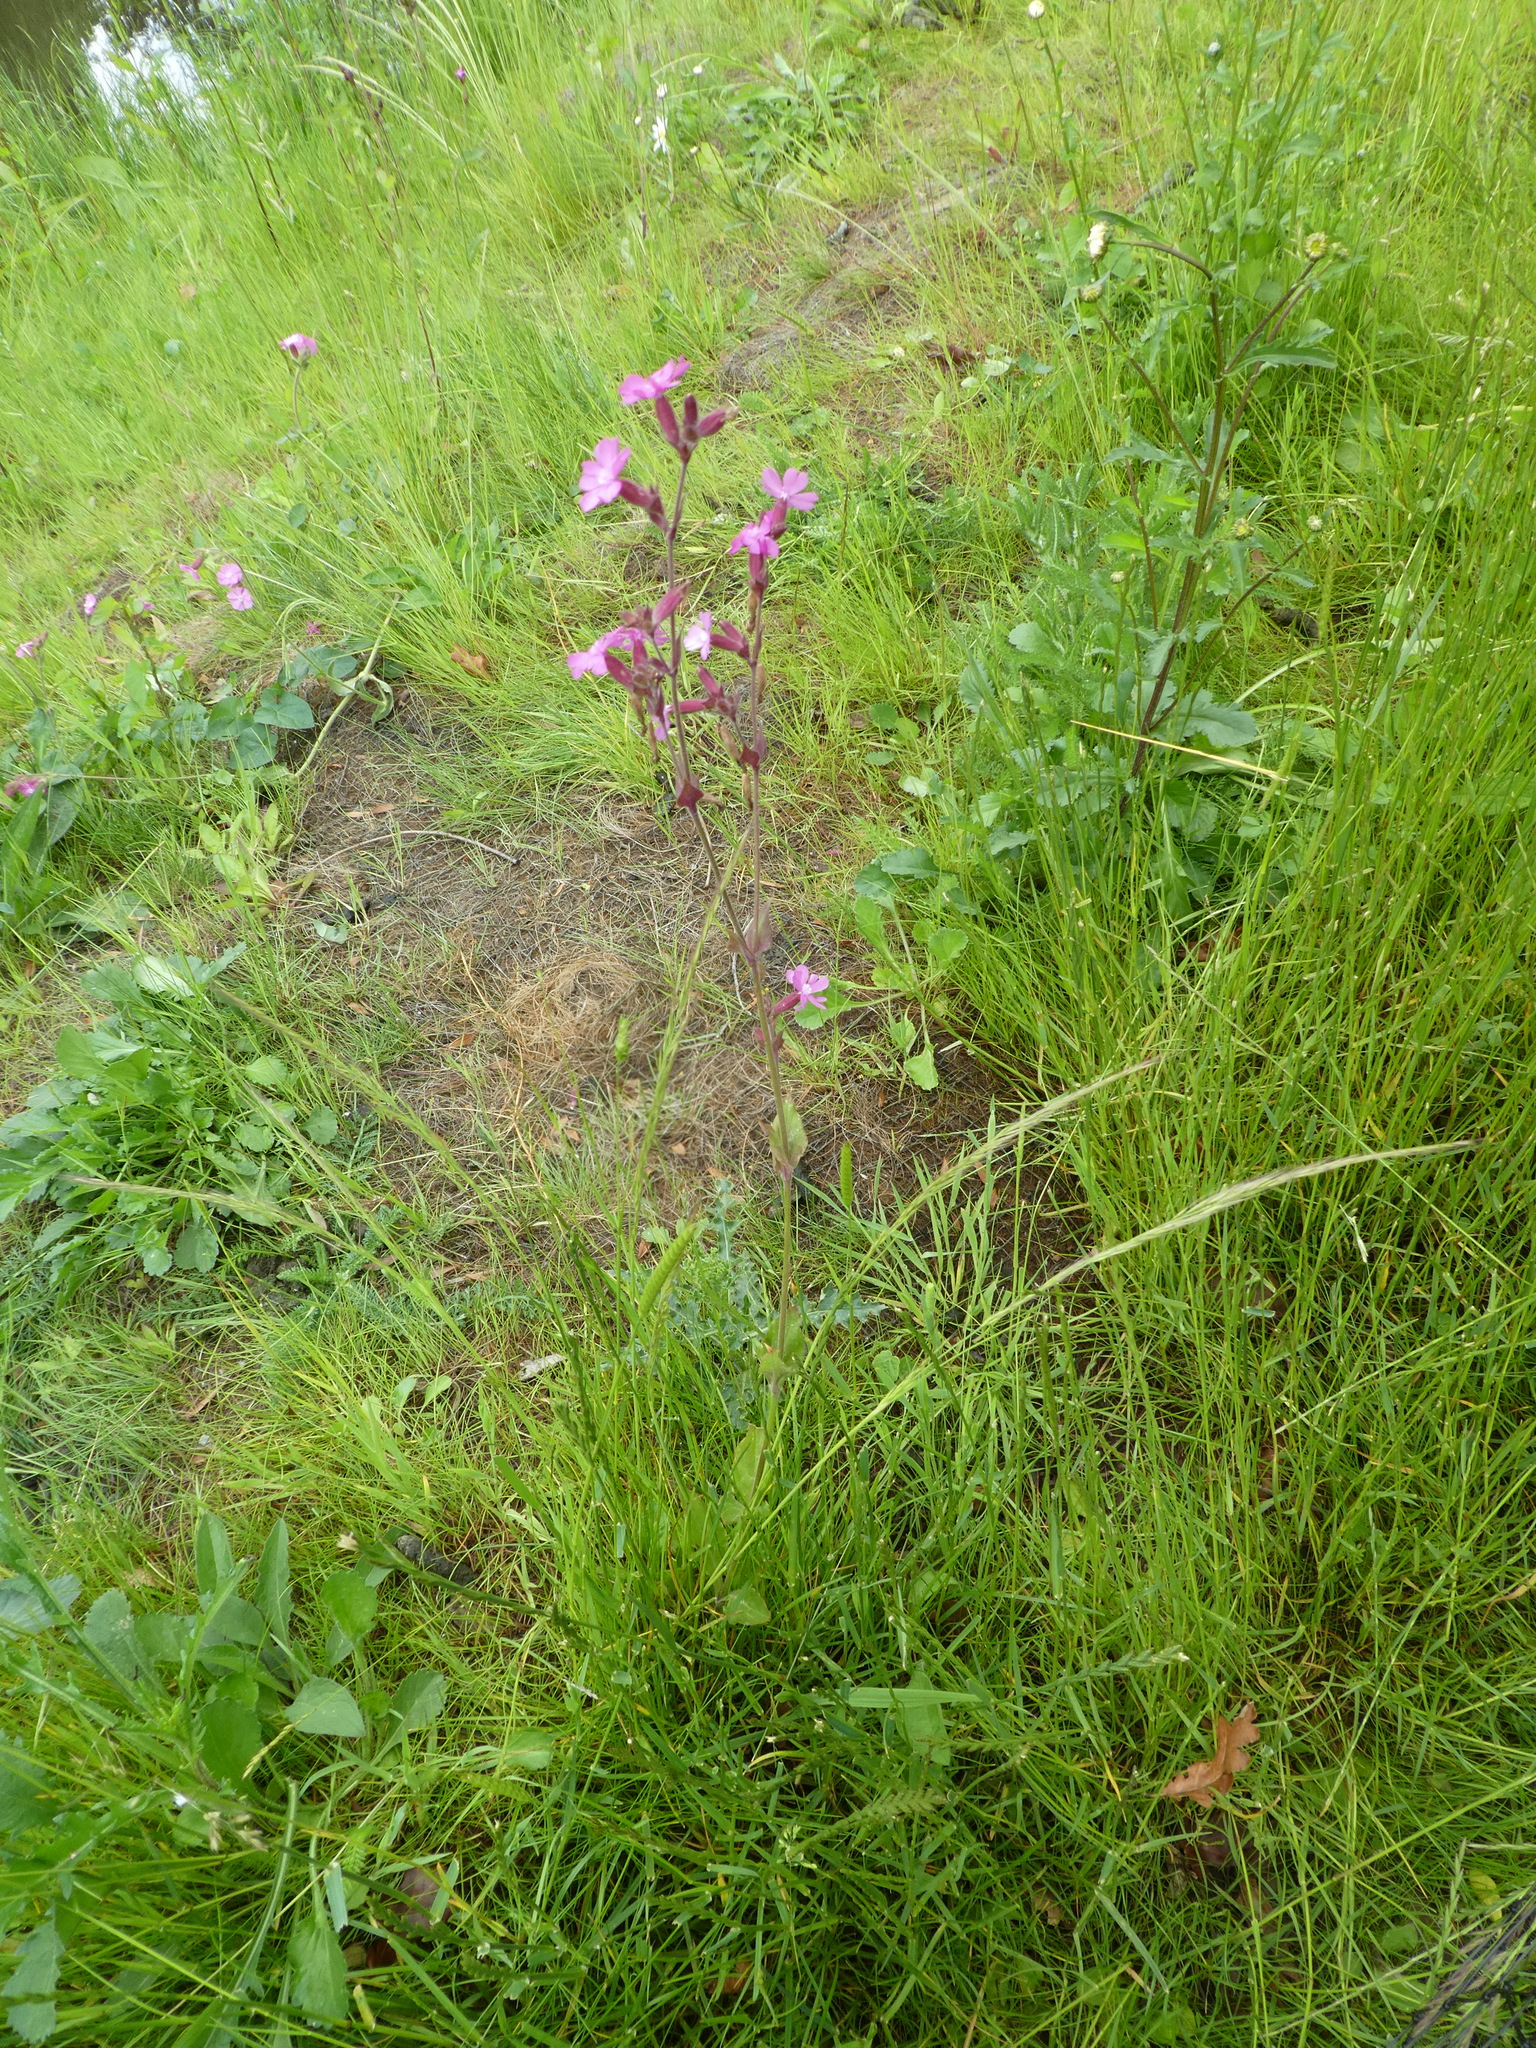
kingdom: Plantae
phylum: Tracheophyta
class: Magnoliopsida
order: Caryophyllales
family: Caryophyllaceae
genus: Silene
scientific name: Silene dioica
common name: Red campion
